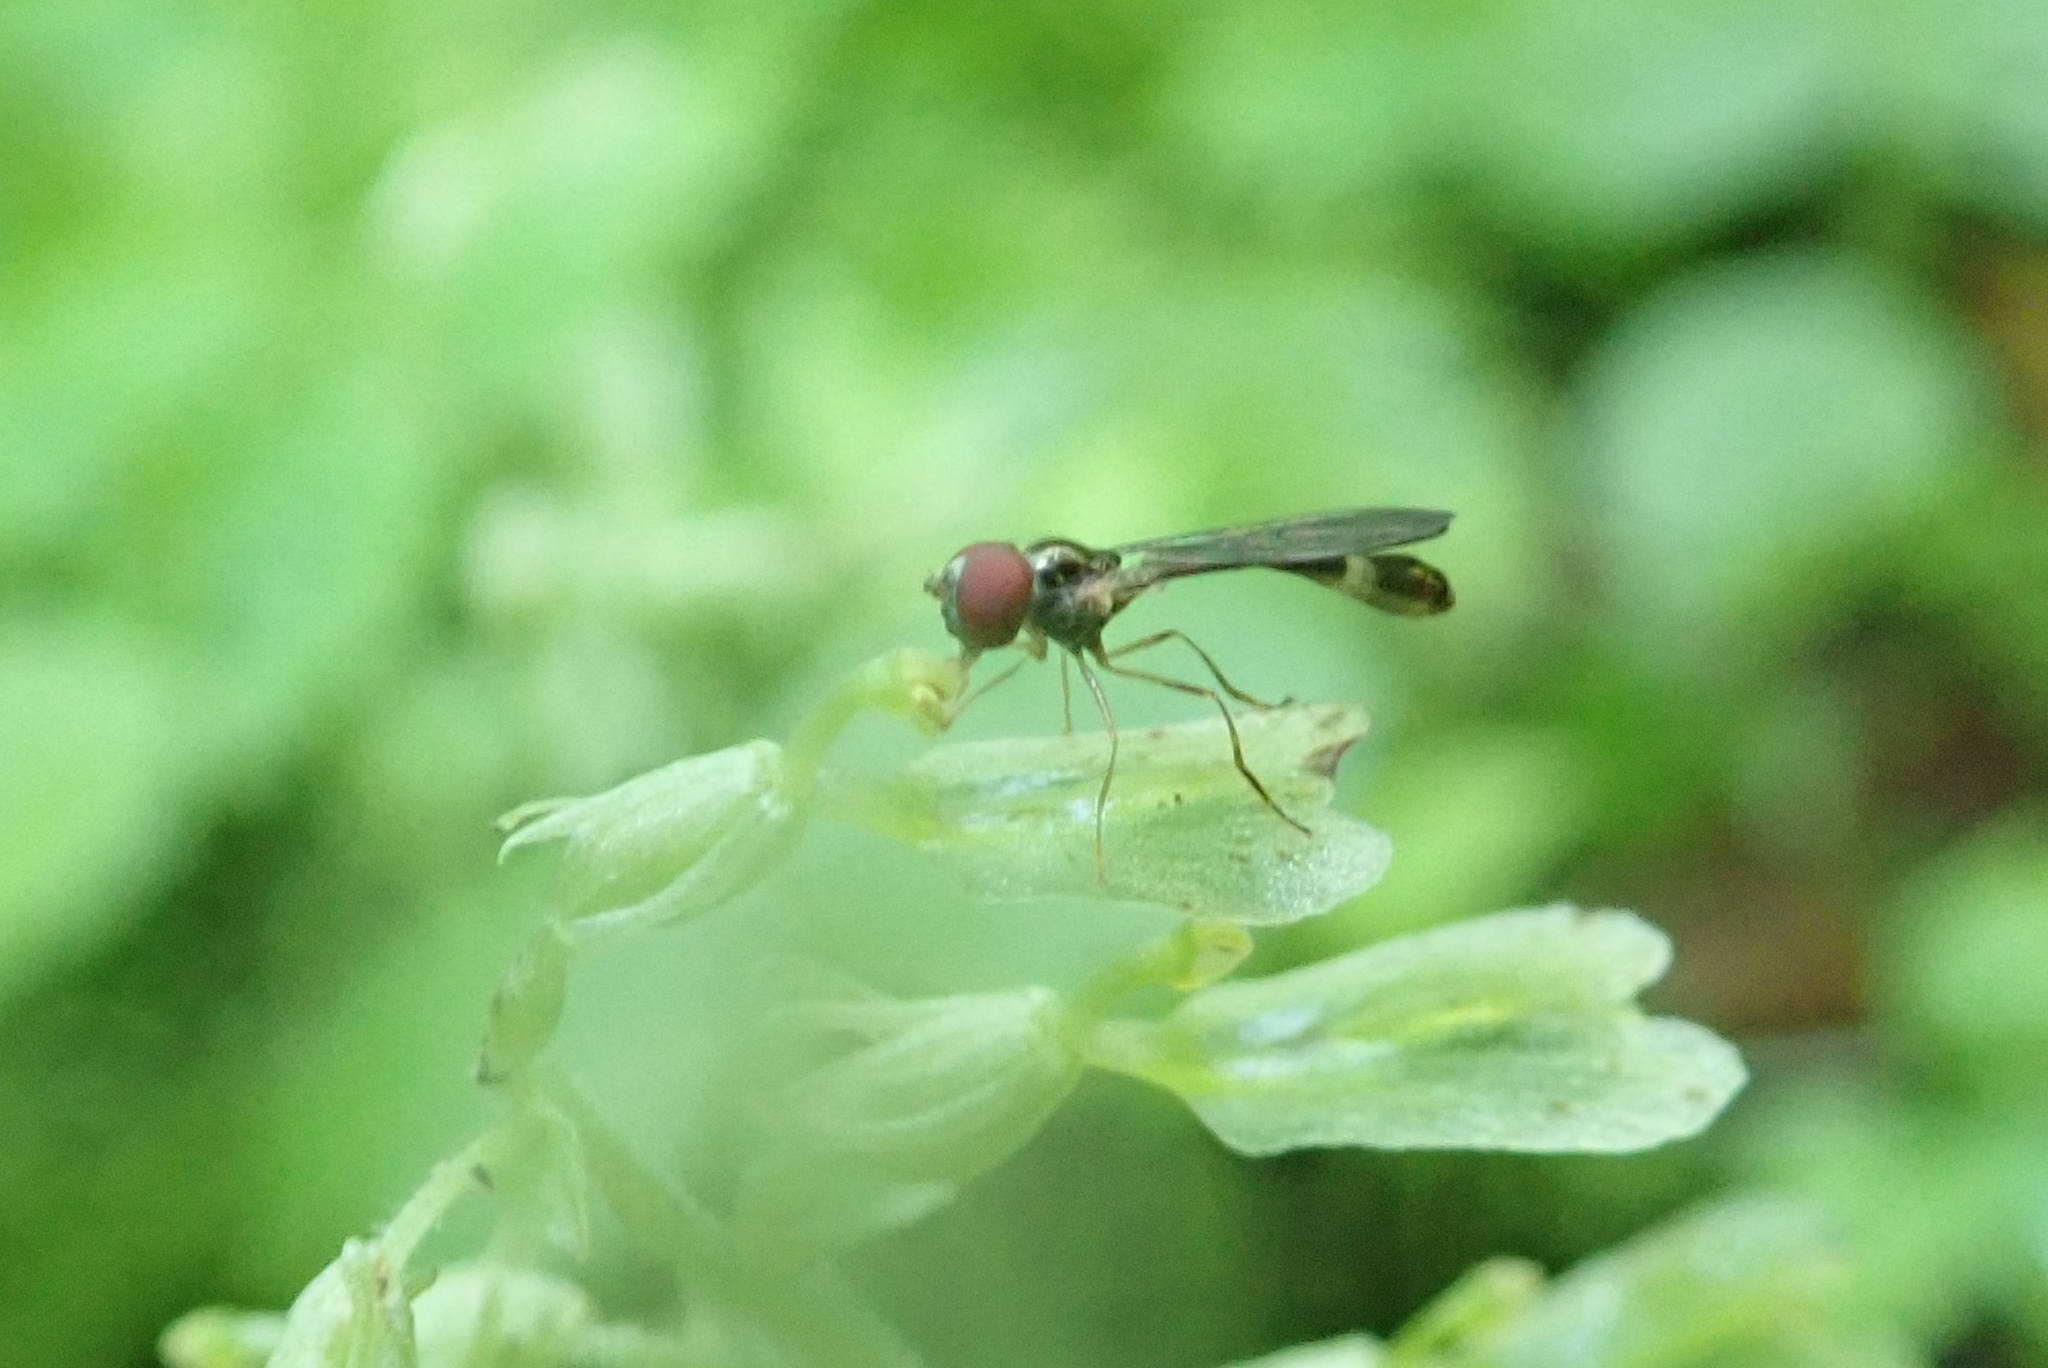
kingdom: Animalia
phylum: Arthropoda
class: Insecta
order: Diptera
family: Syrphidae
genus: Baccha
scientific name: Baccha cognata
